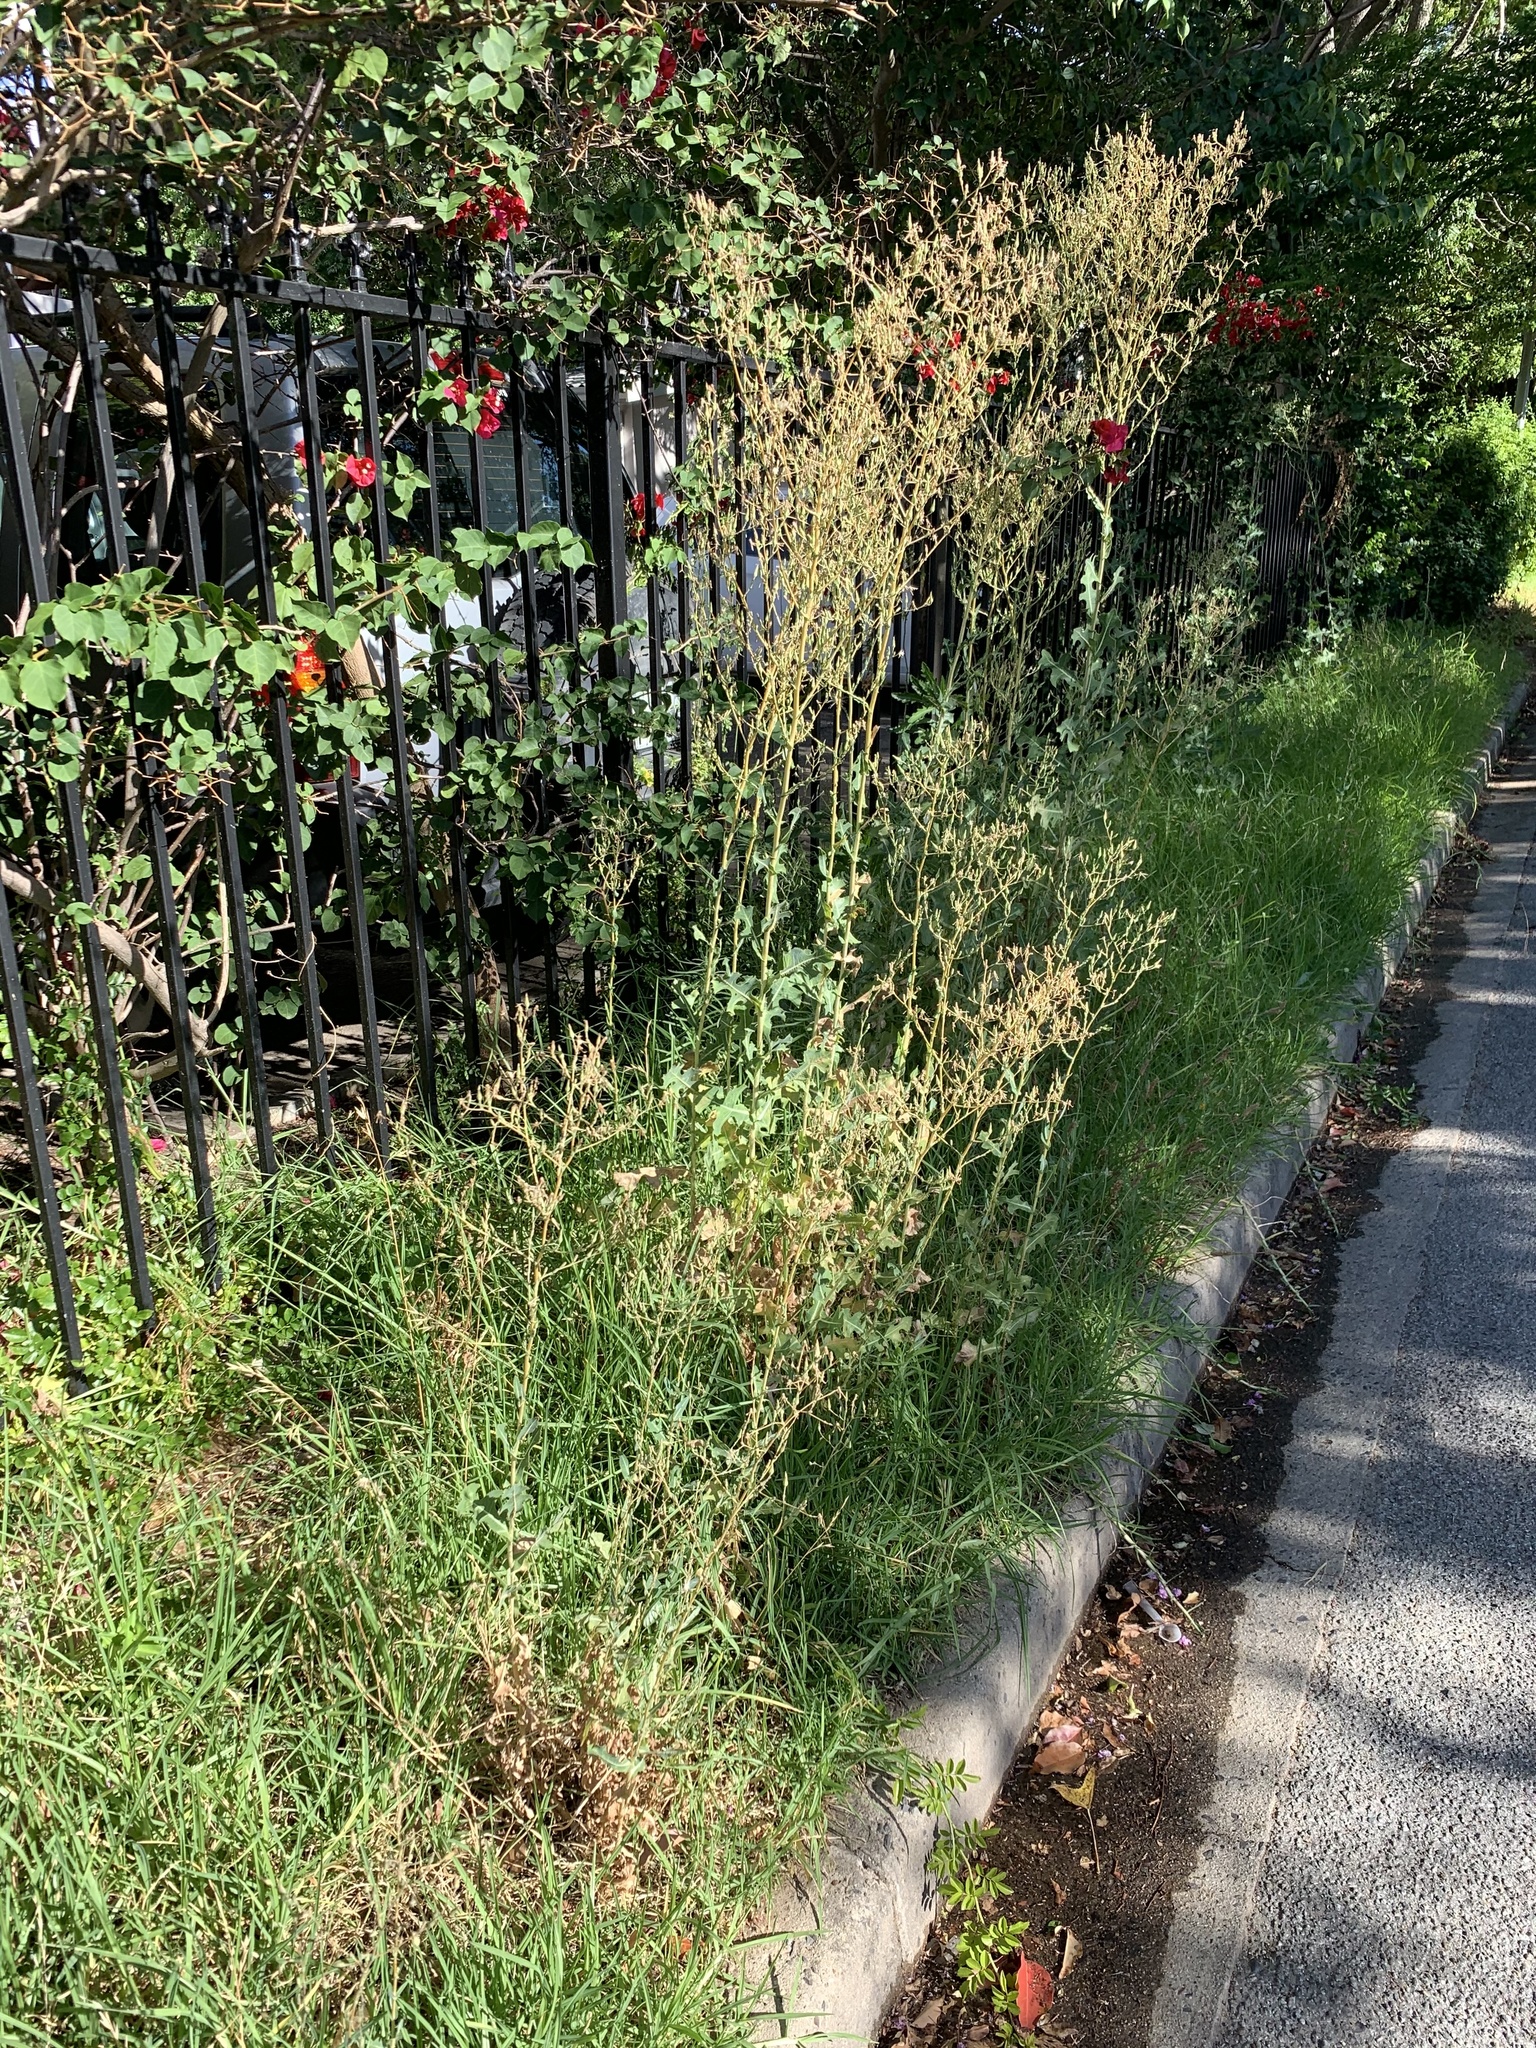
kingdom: Plantae
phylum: Tracheophyta
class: Magnoliopsida
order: Asterales
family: Asteraceae
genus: Lactuca
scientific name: Lactuca serriola
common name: Prickly lettuce
